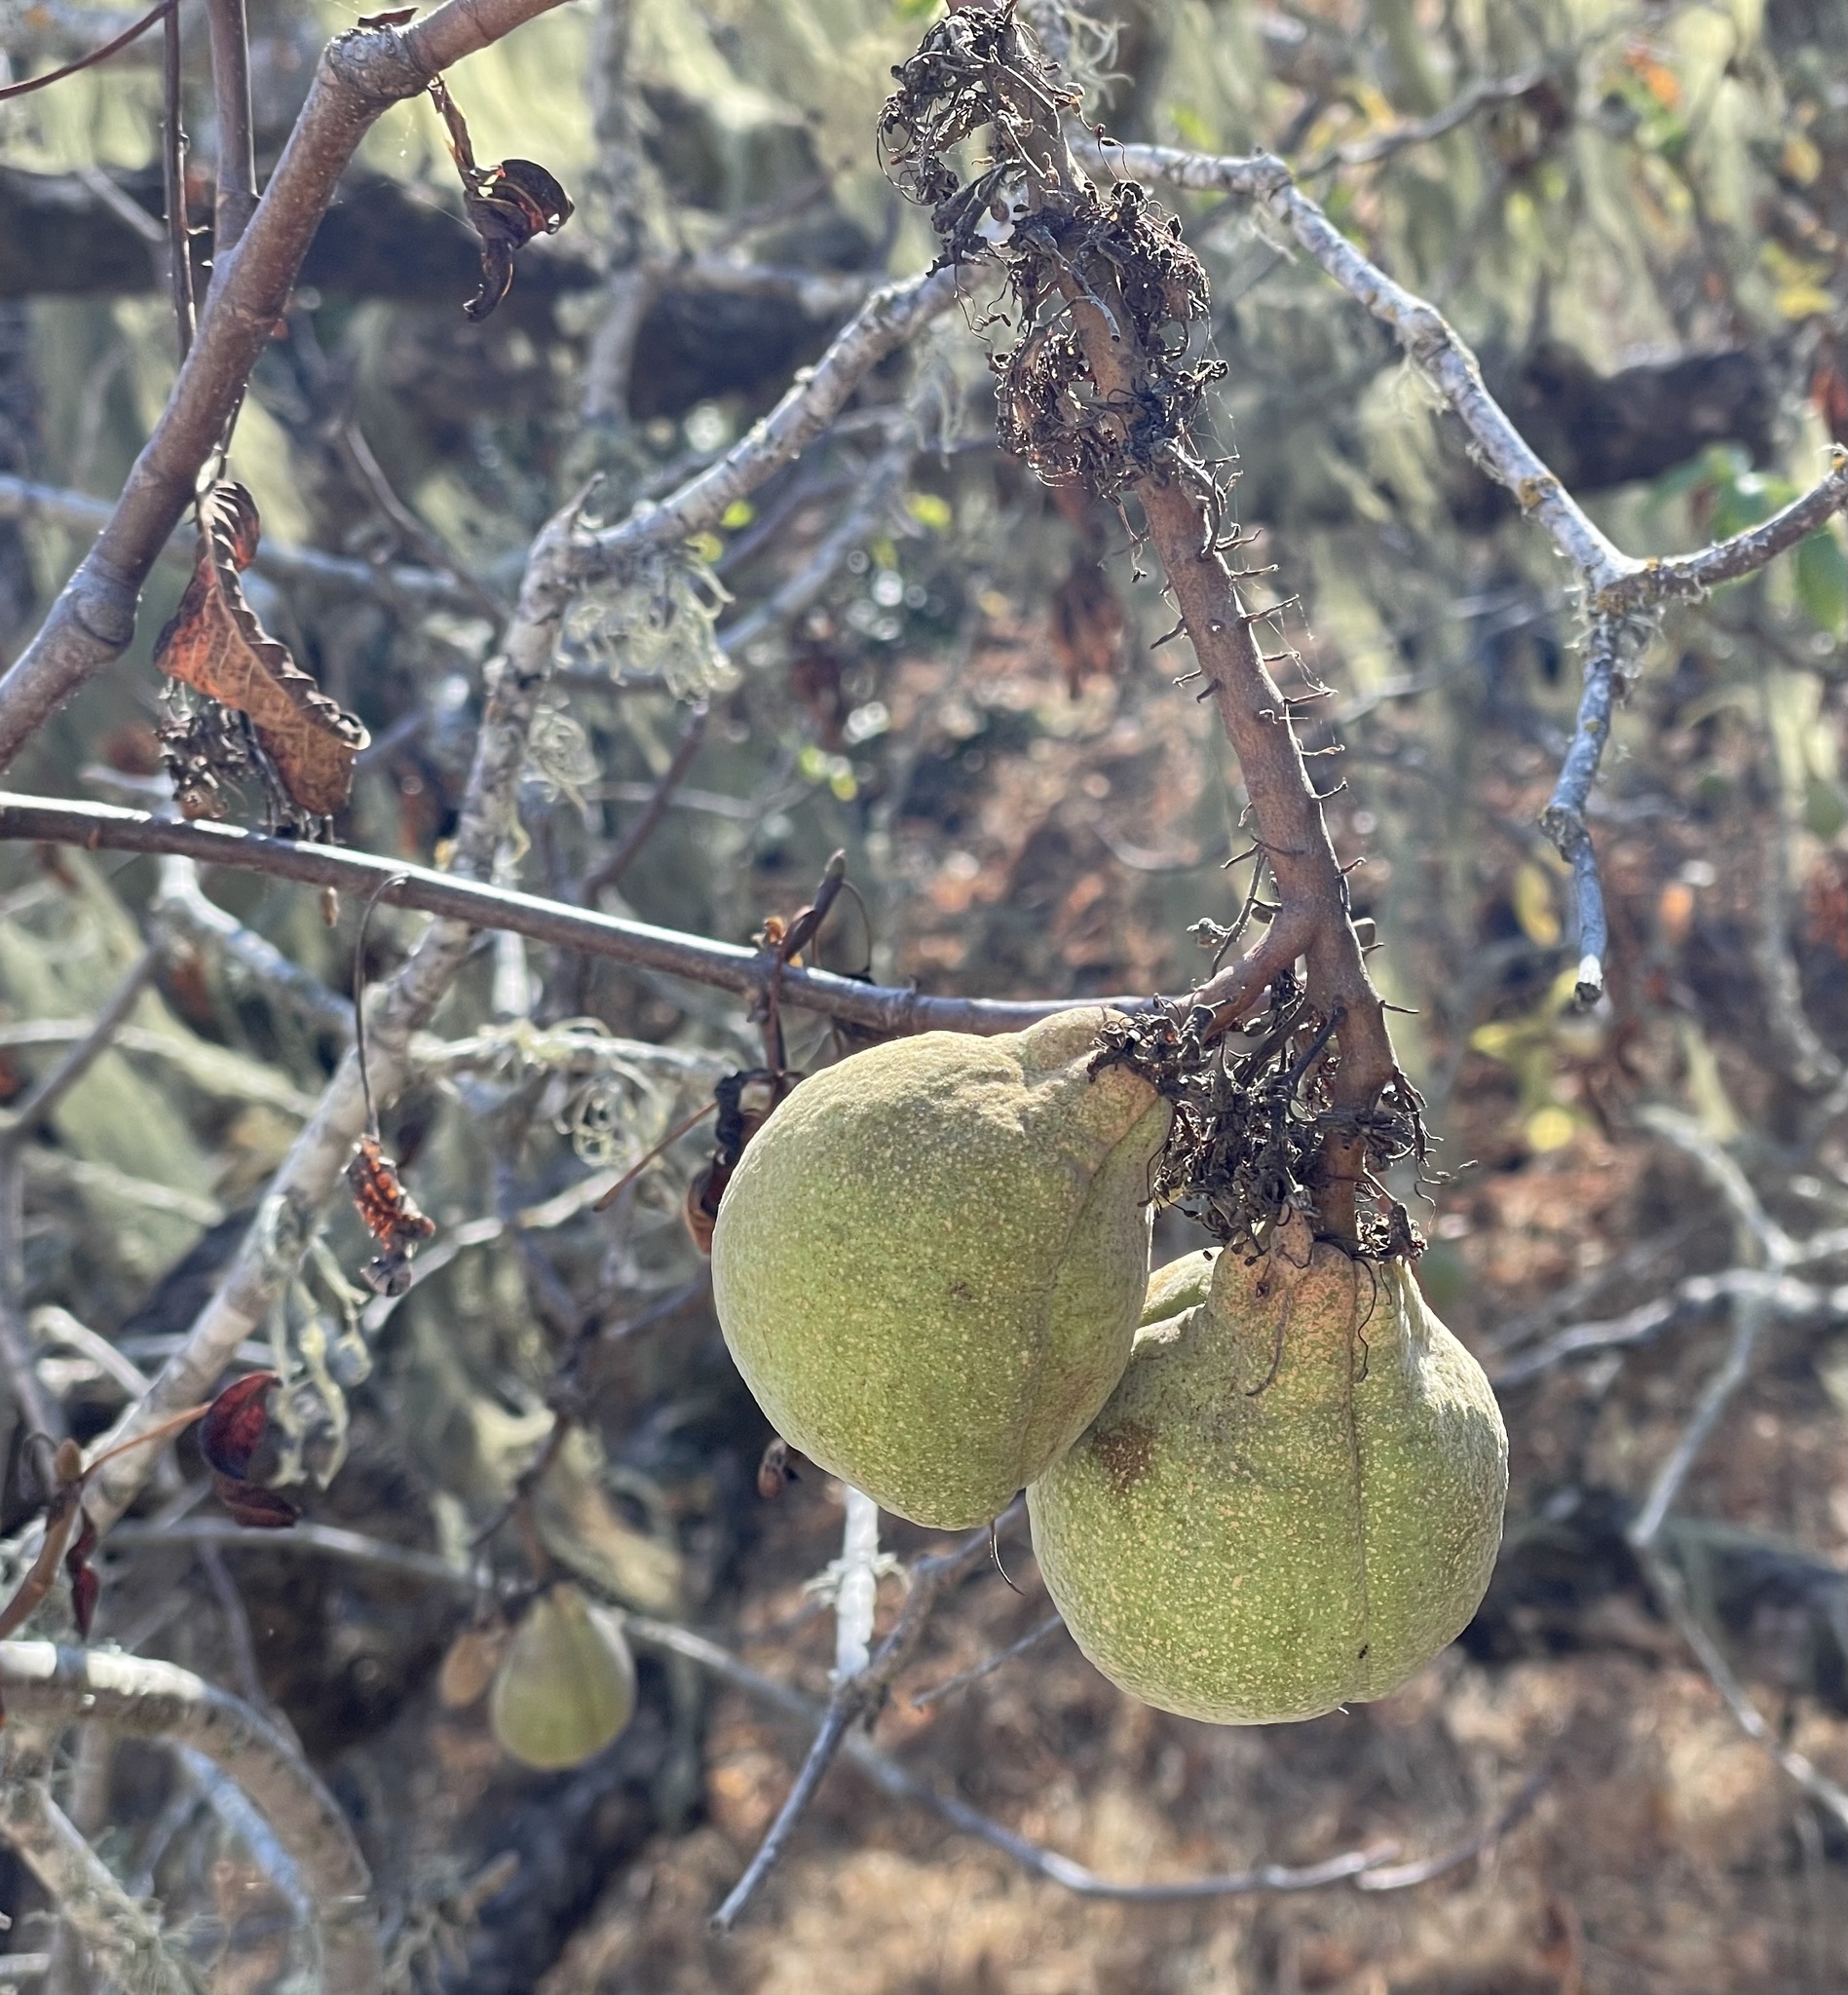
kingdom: Plantae
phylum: Tracheophyta
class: Magnoliopsida
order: Sapindales
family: Sapindaceae
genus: Aesculus
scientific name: Aesculus californica
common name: California buckeye
